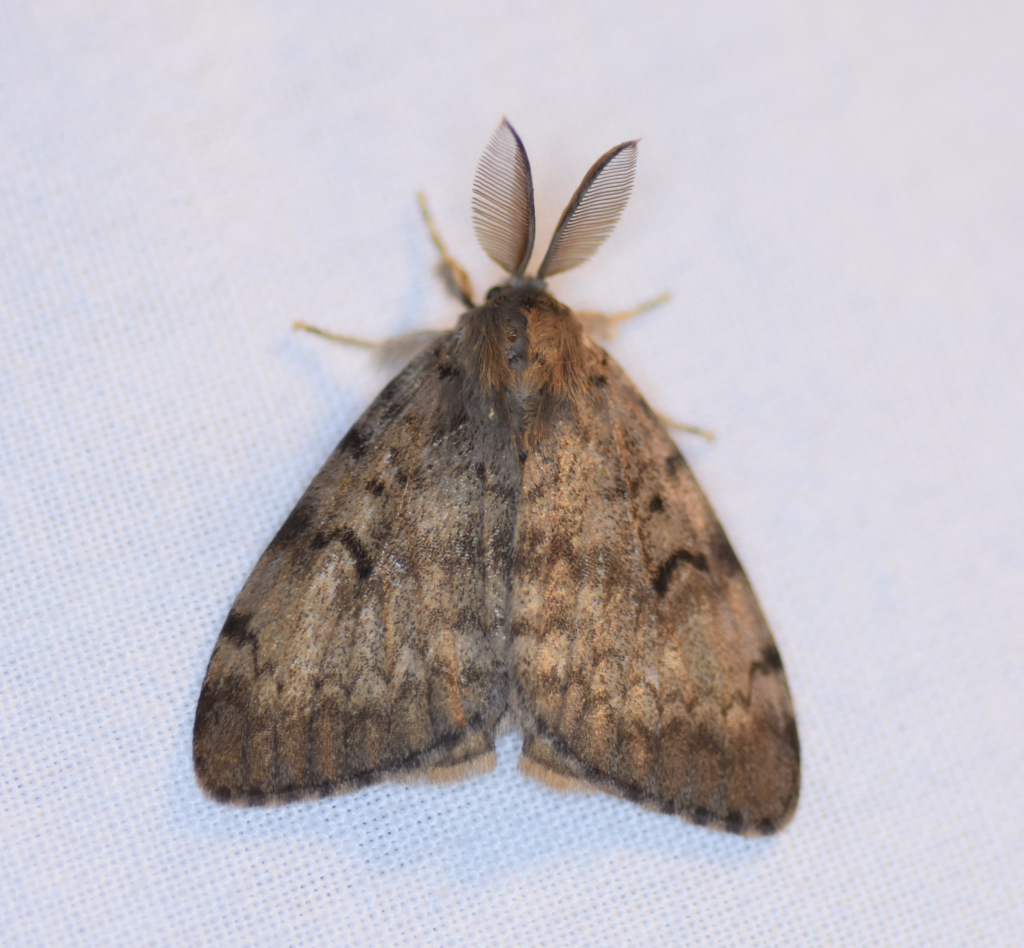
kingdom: Animalia
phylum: Arthropoda
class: Insecta
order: Lepidoptera
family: Erebidae
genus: Lymantria
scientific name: Lymantria dispar
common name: Gypsy moth
